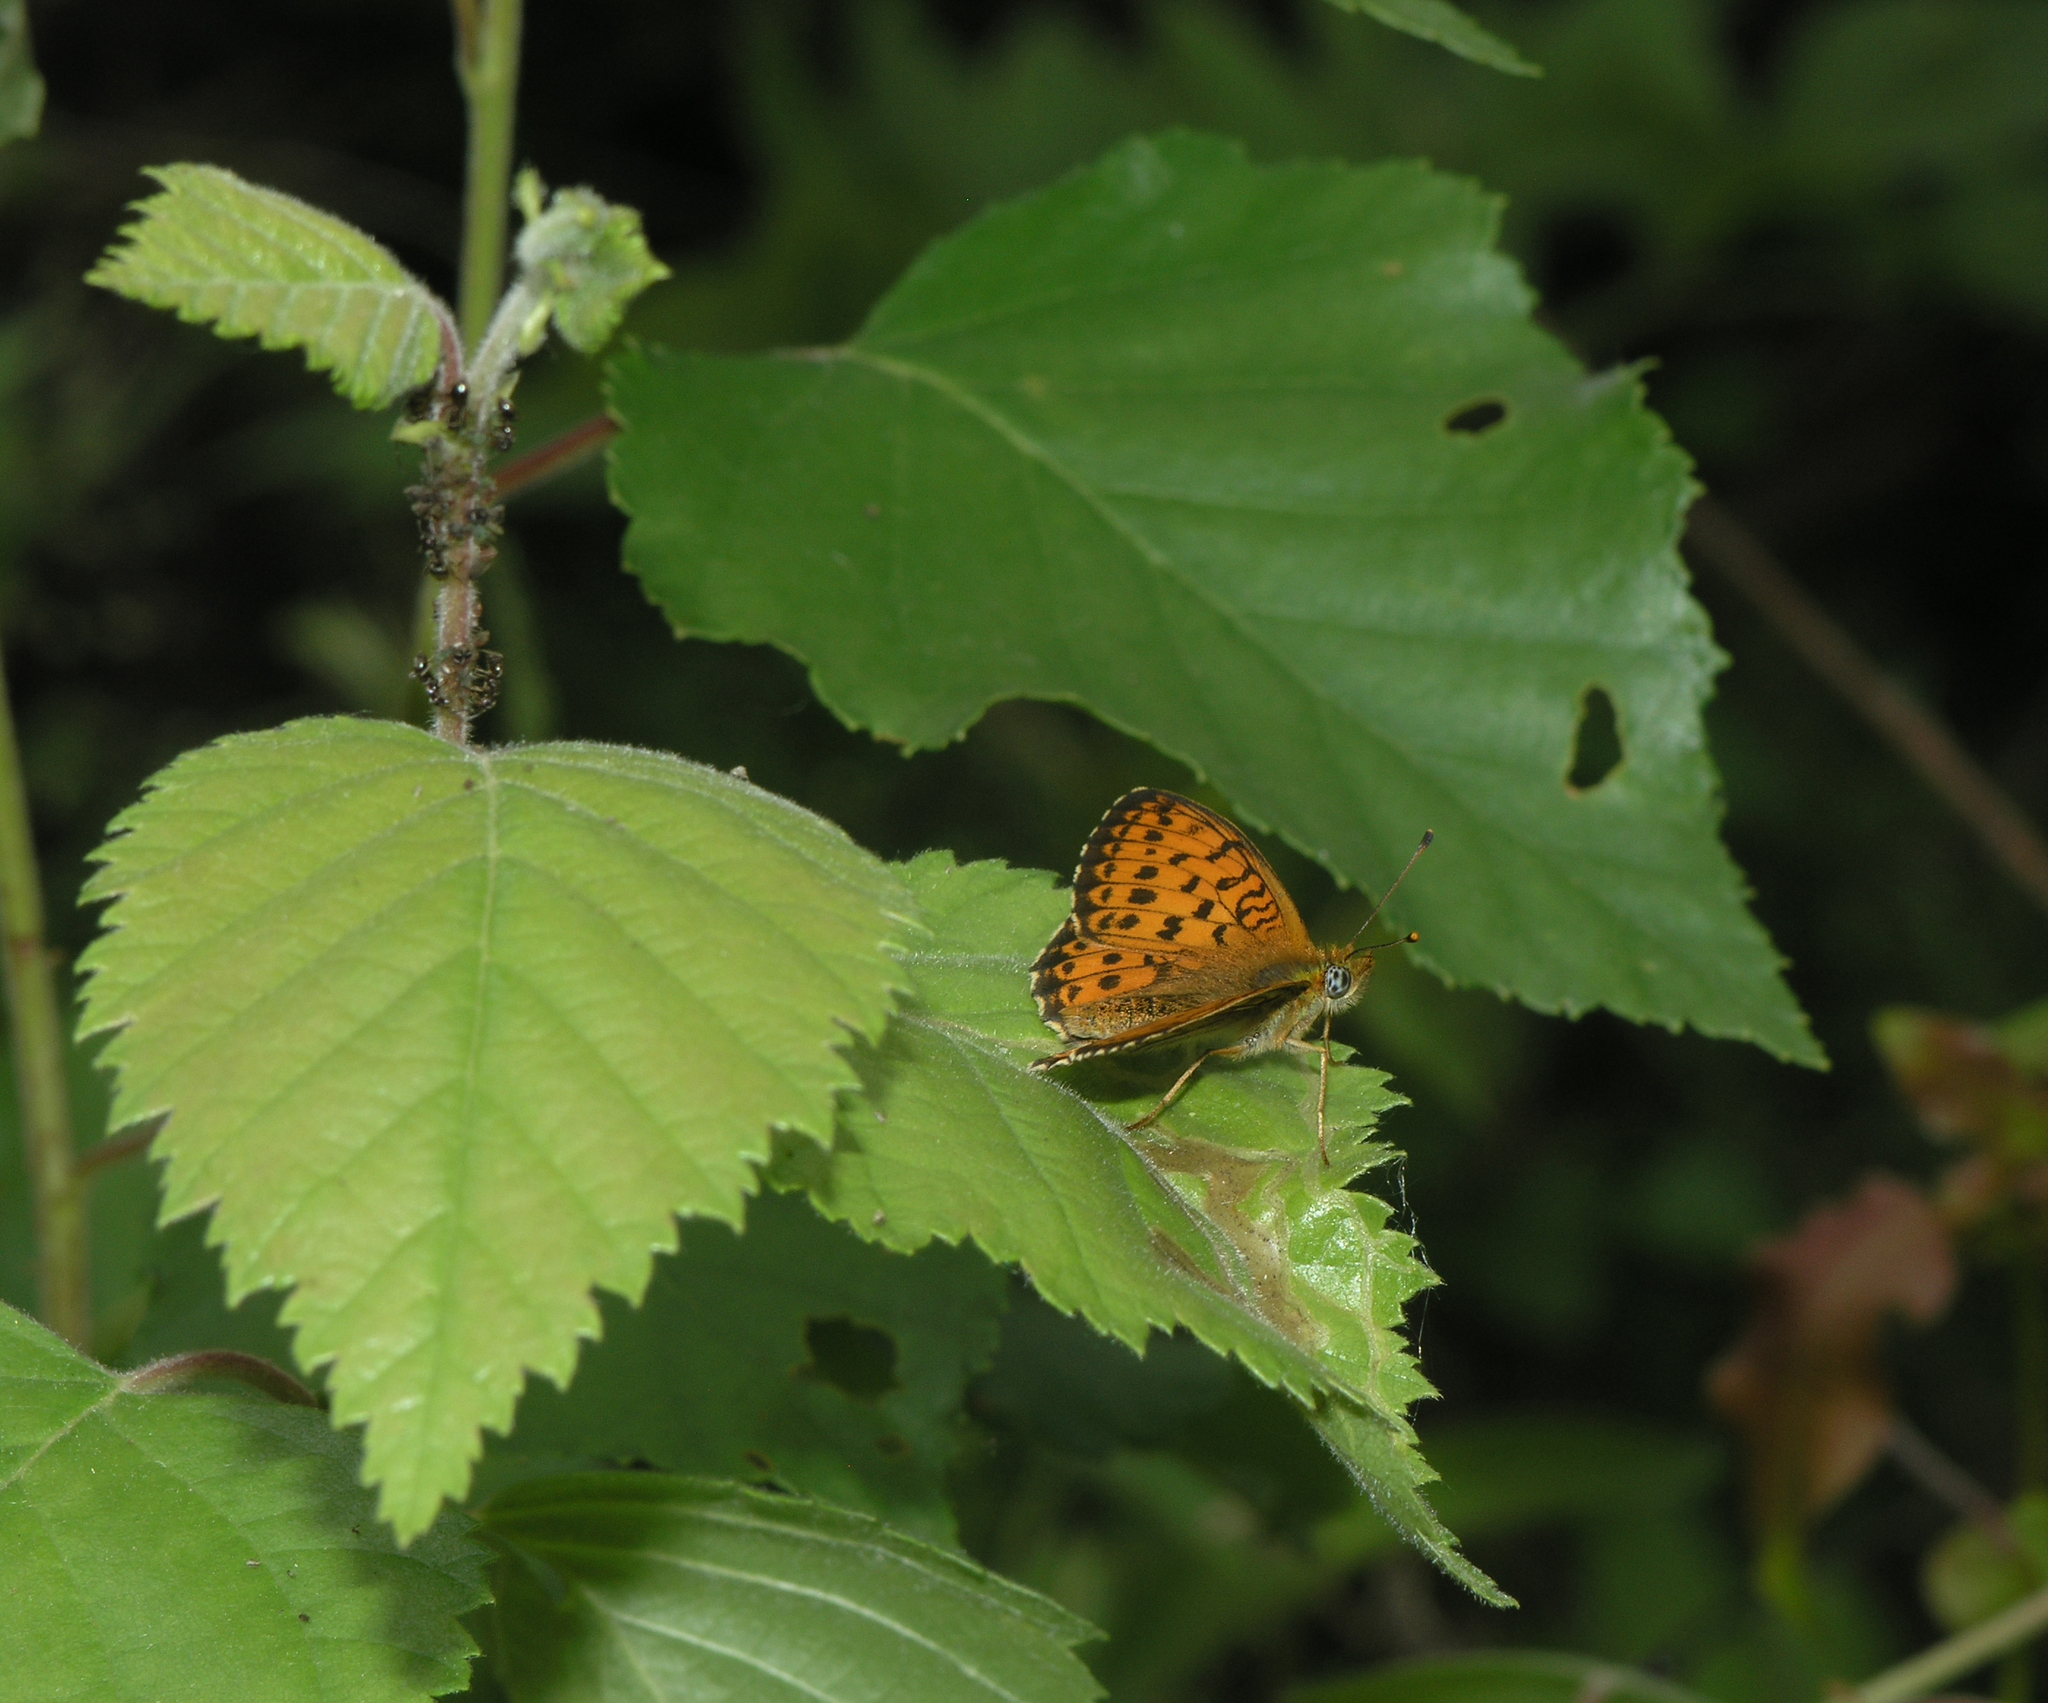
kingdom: Animalia
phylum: Arthropoda
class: Insecta
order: Lepidoptera
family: Nymphalidae
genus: Brenthis
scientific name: Brenthis ino
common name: Lesser marbled fritillary
